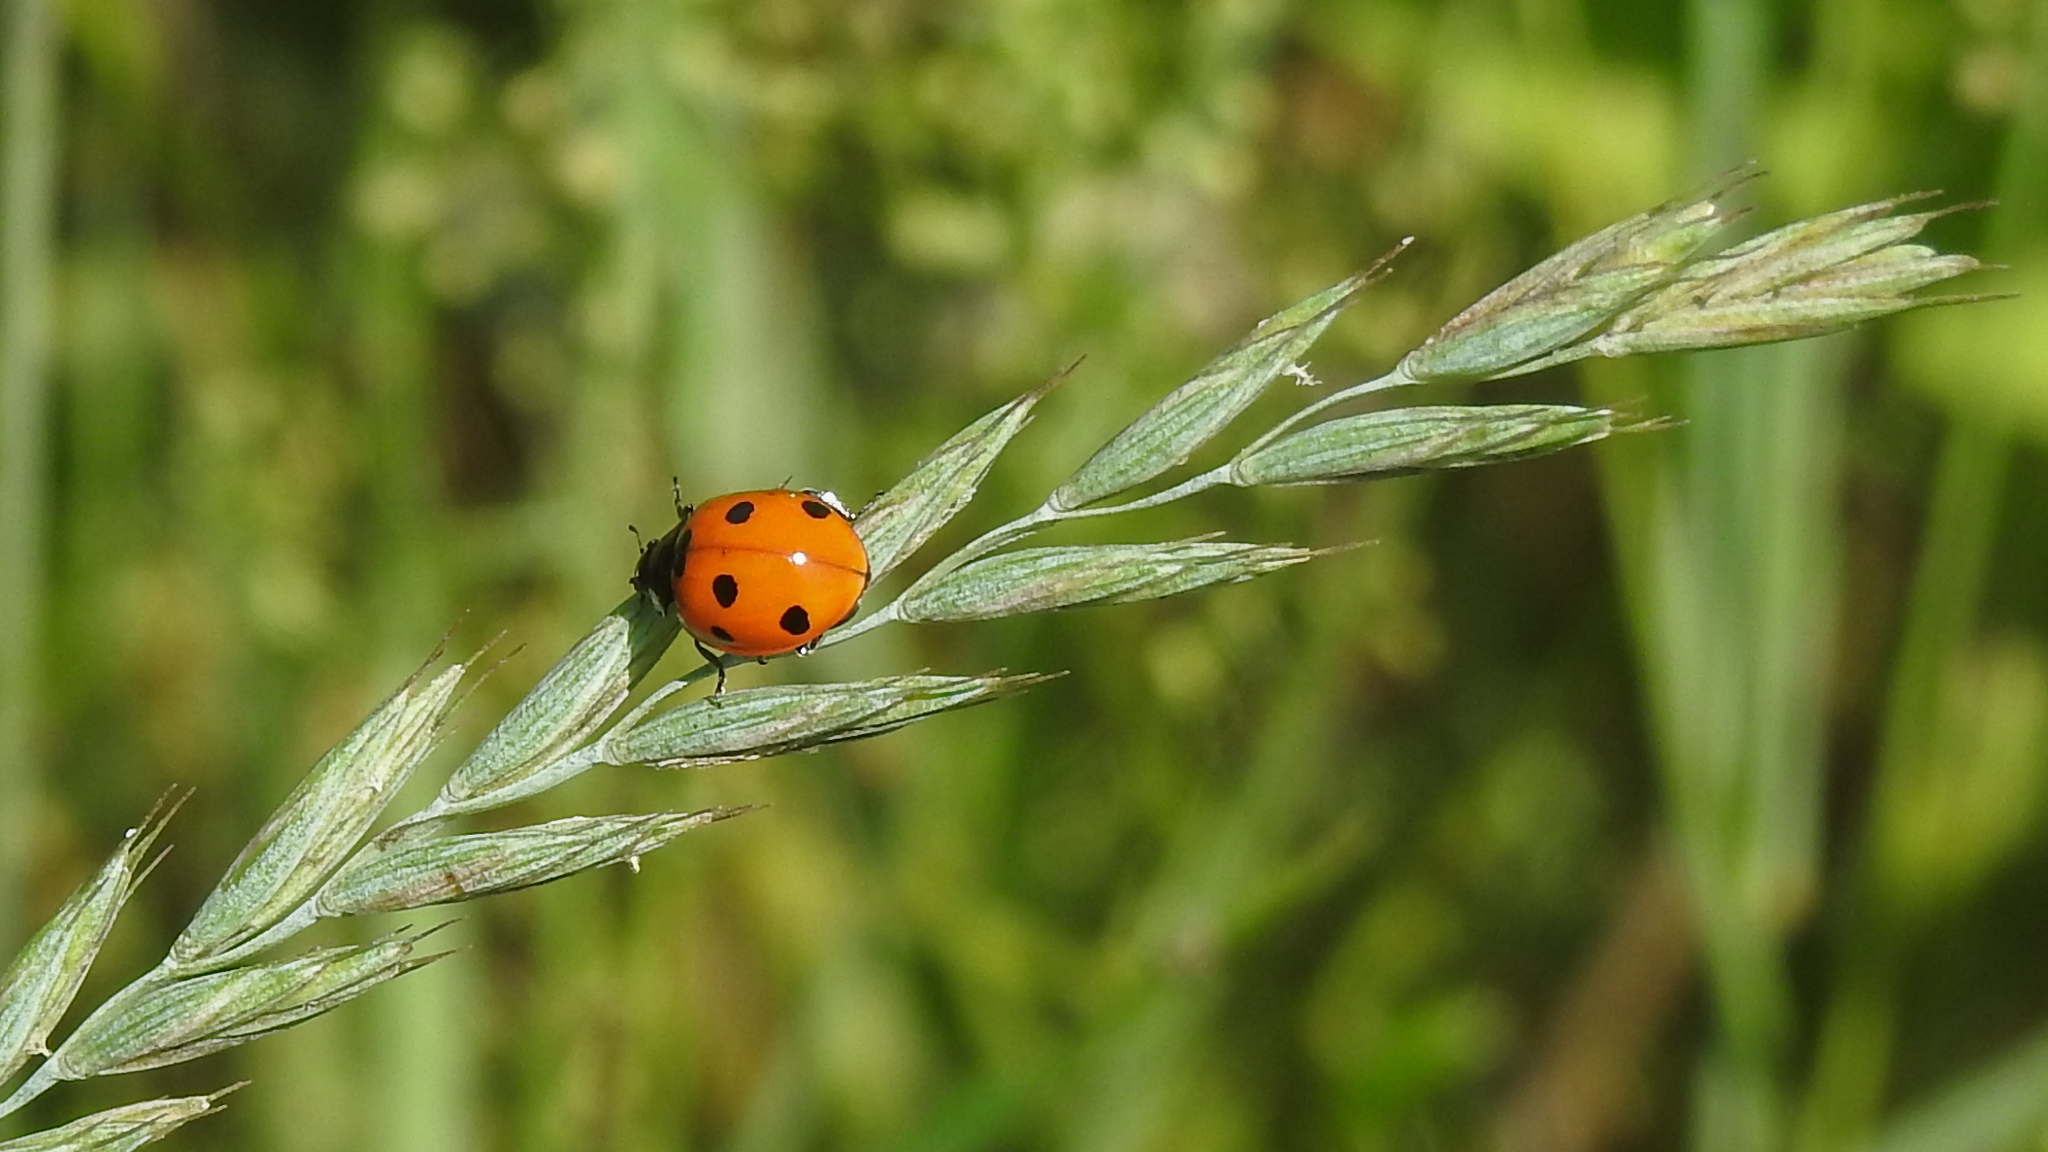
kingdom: Animalia
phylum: Arthropoda
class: Insecta
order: Coleoptera
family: Coccinellidae
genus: Coccinella
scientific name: Coccinella septempunctata
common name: Sevenspotted lady beetle
